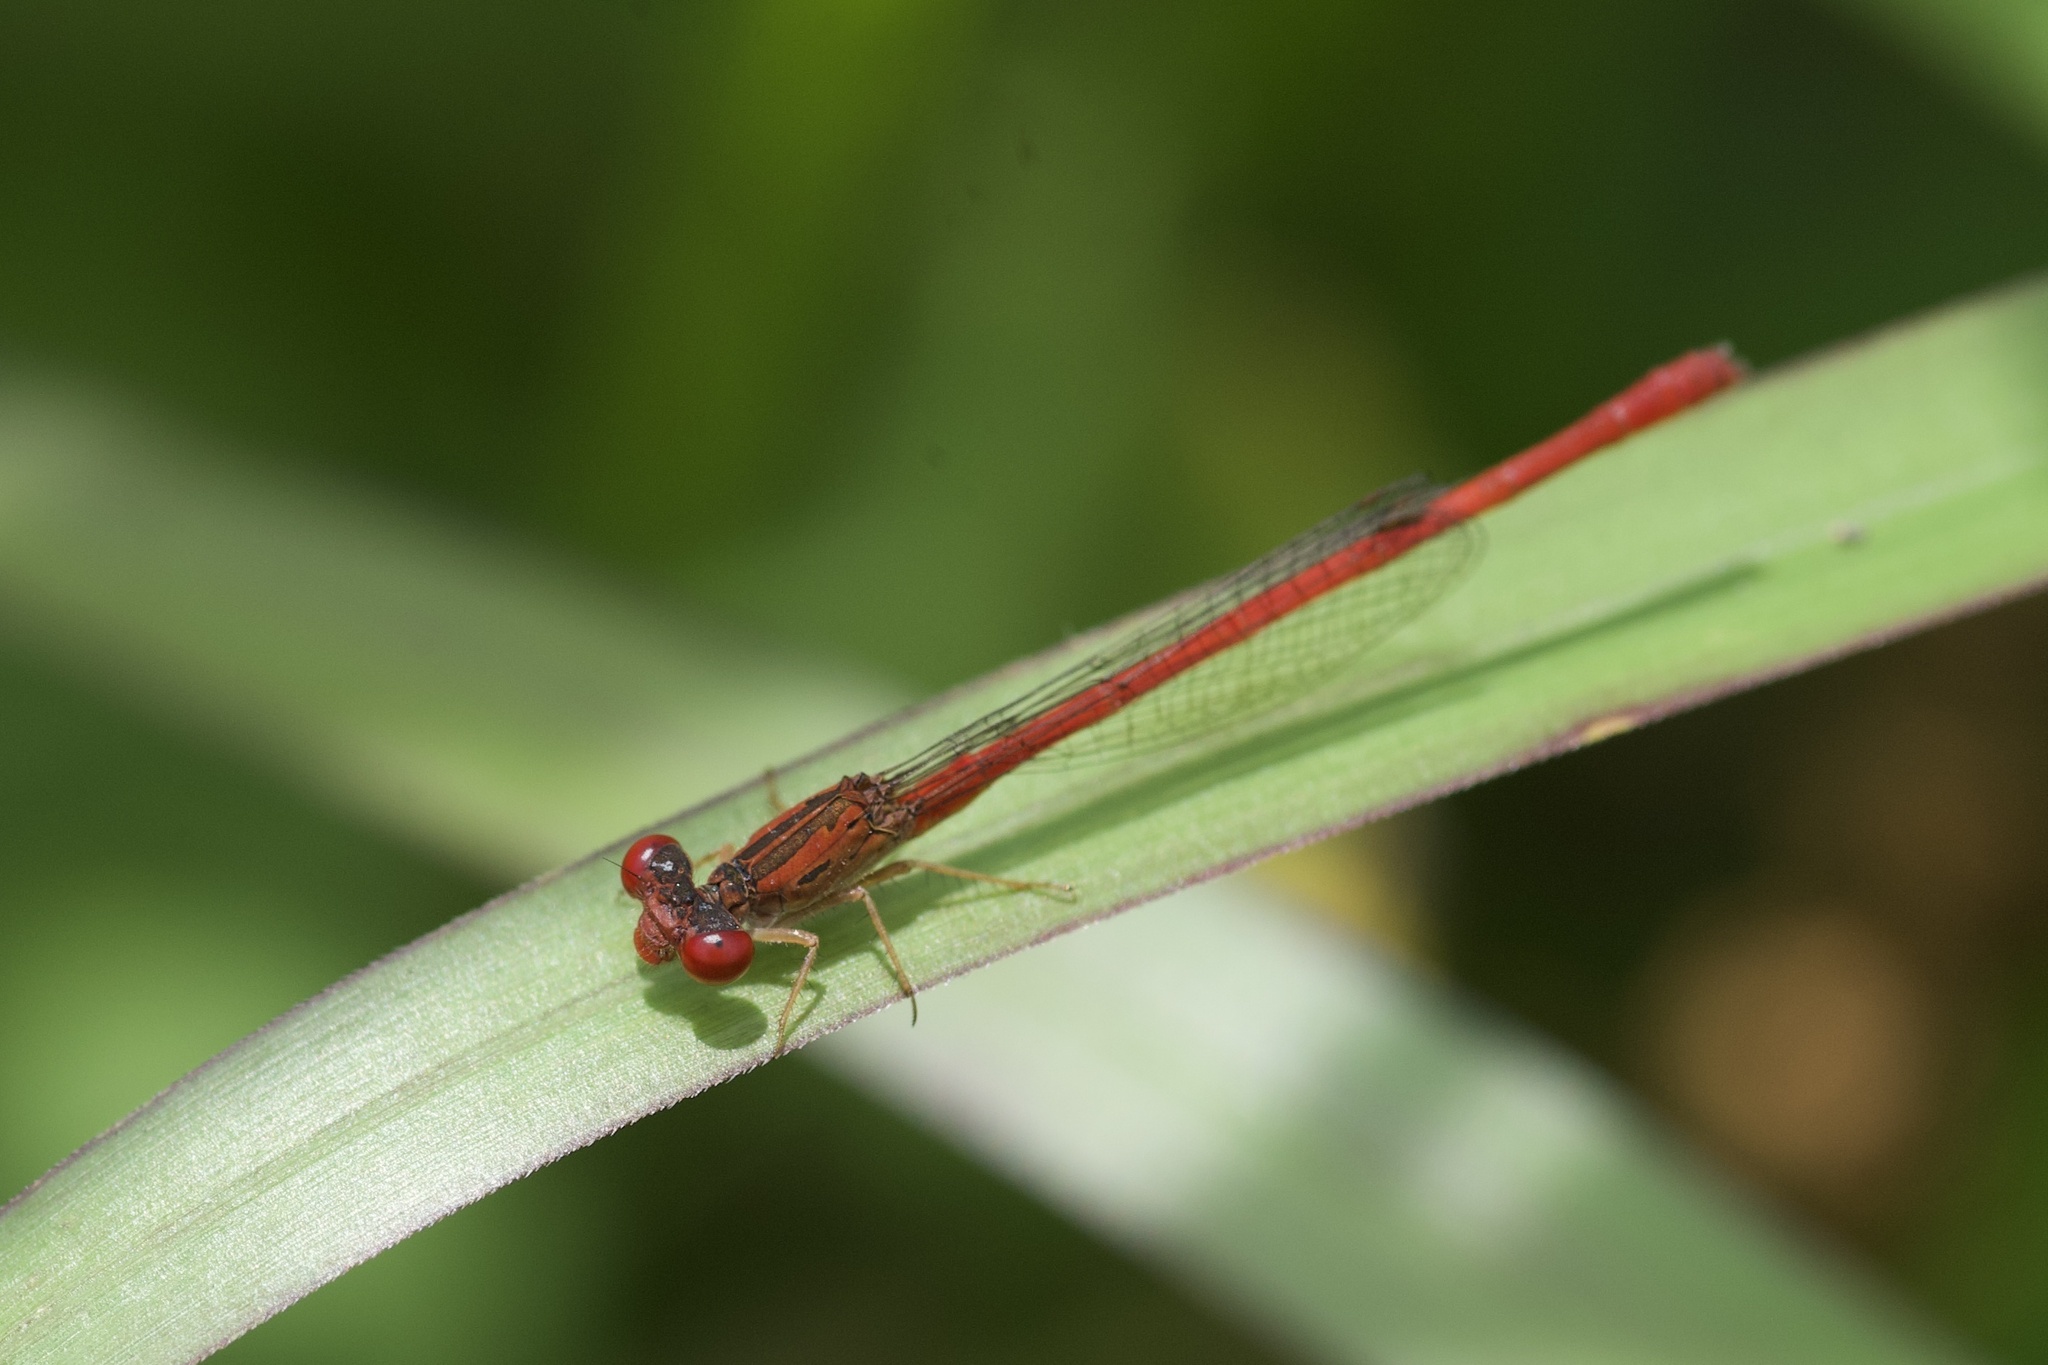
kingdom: Animalia
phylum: Arthropoda
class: Insecta
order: Odonata
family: Coenagrionidae
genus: Telebasis
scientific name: Telebasis salva
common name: Desert firetail
